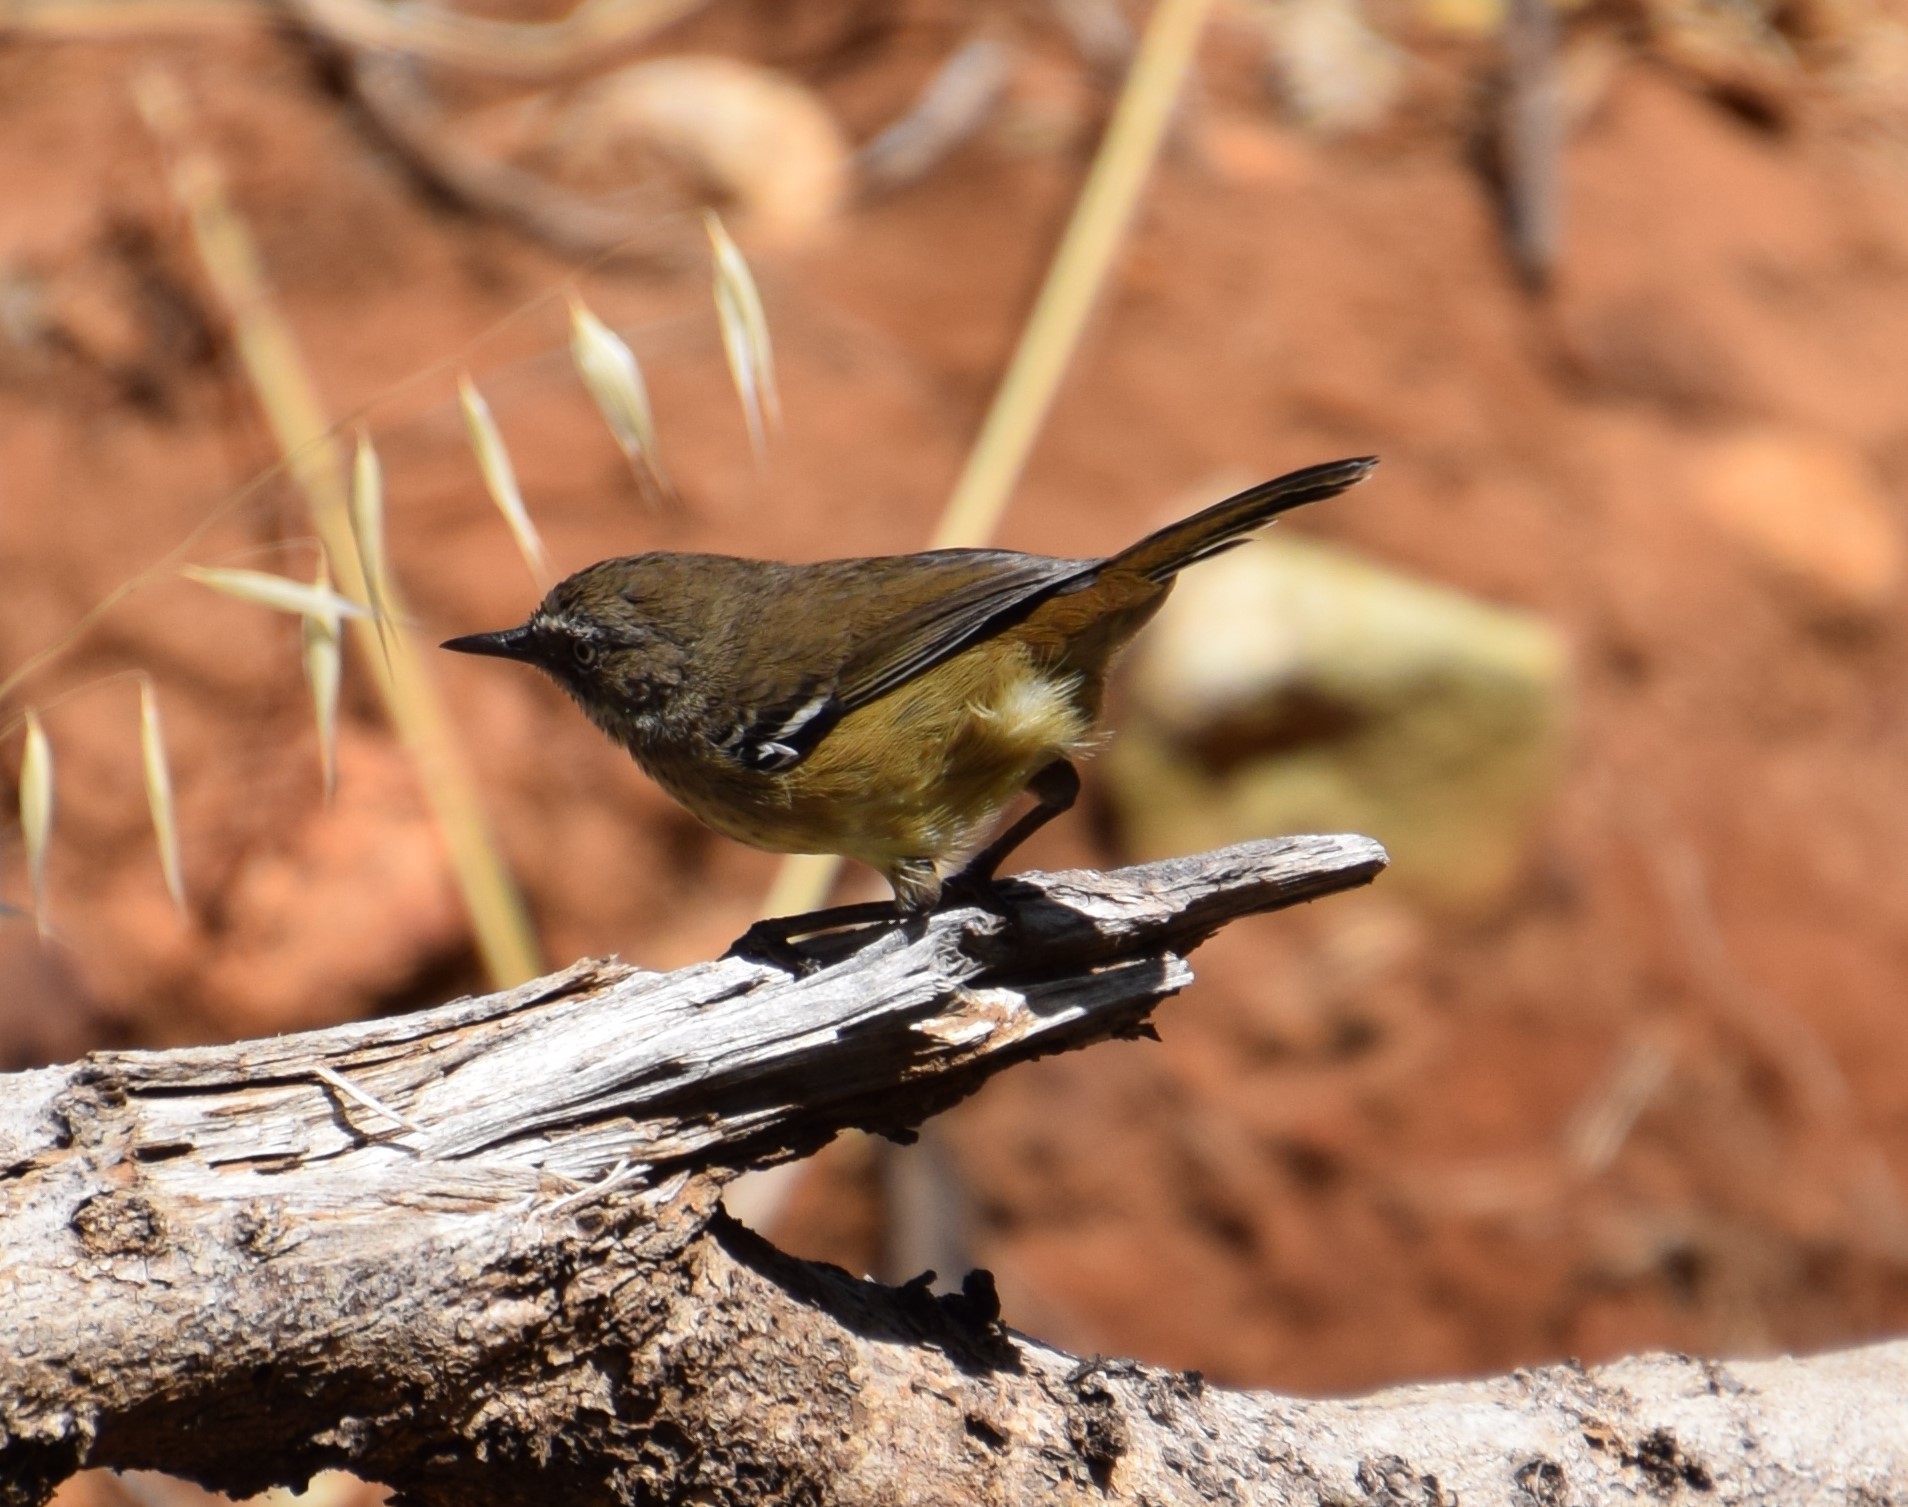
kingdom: Animalia
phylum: Chordata
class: Aves
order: Passeriformes
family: Acanthizidae
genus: Sericornis
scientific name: Sericornis maculatus
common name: Spotted scrubwren
